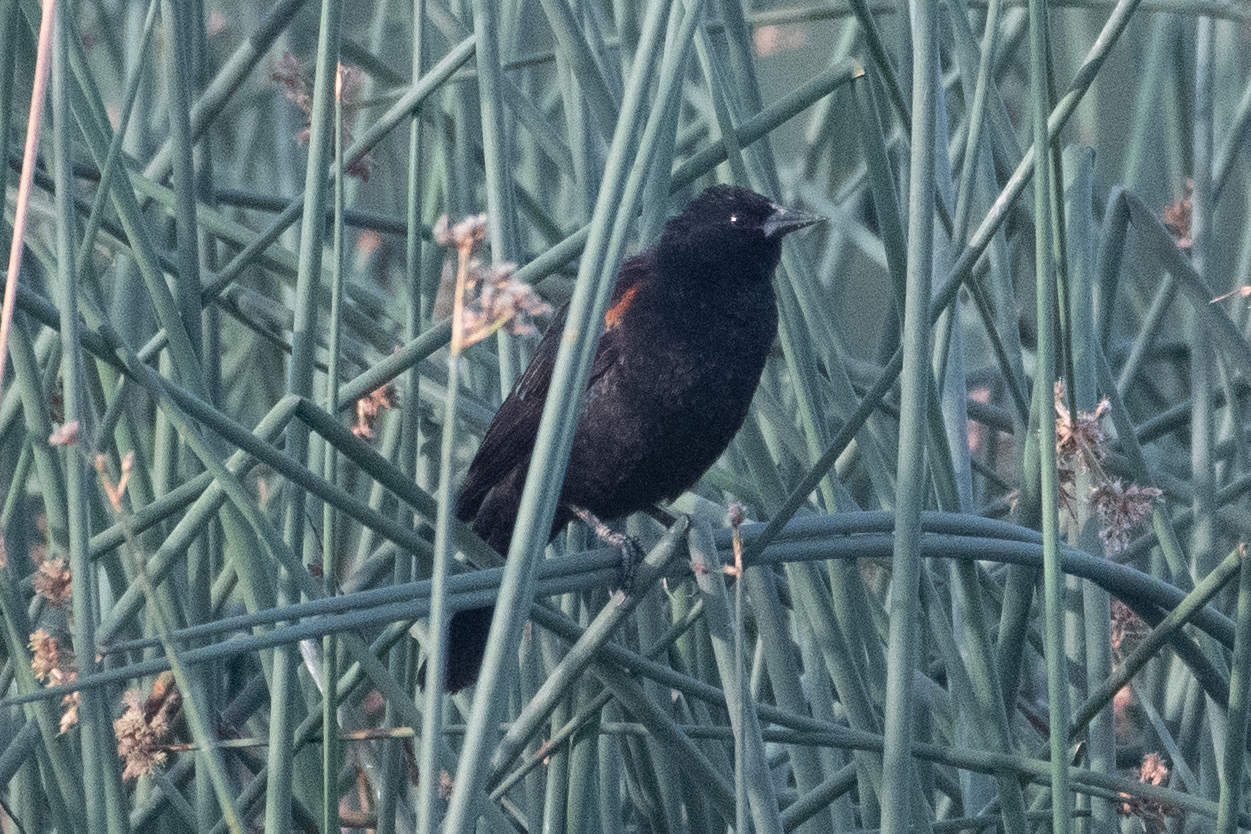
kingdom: Animalia
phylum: Chordata
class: Aves
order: Passeriformes
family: Icteridae
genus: Agelaius
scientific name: Agelaius phoeniceus
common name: Red-winged blackbird
